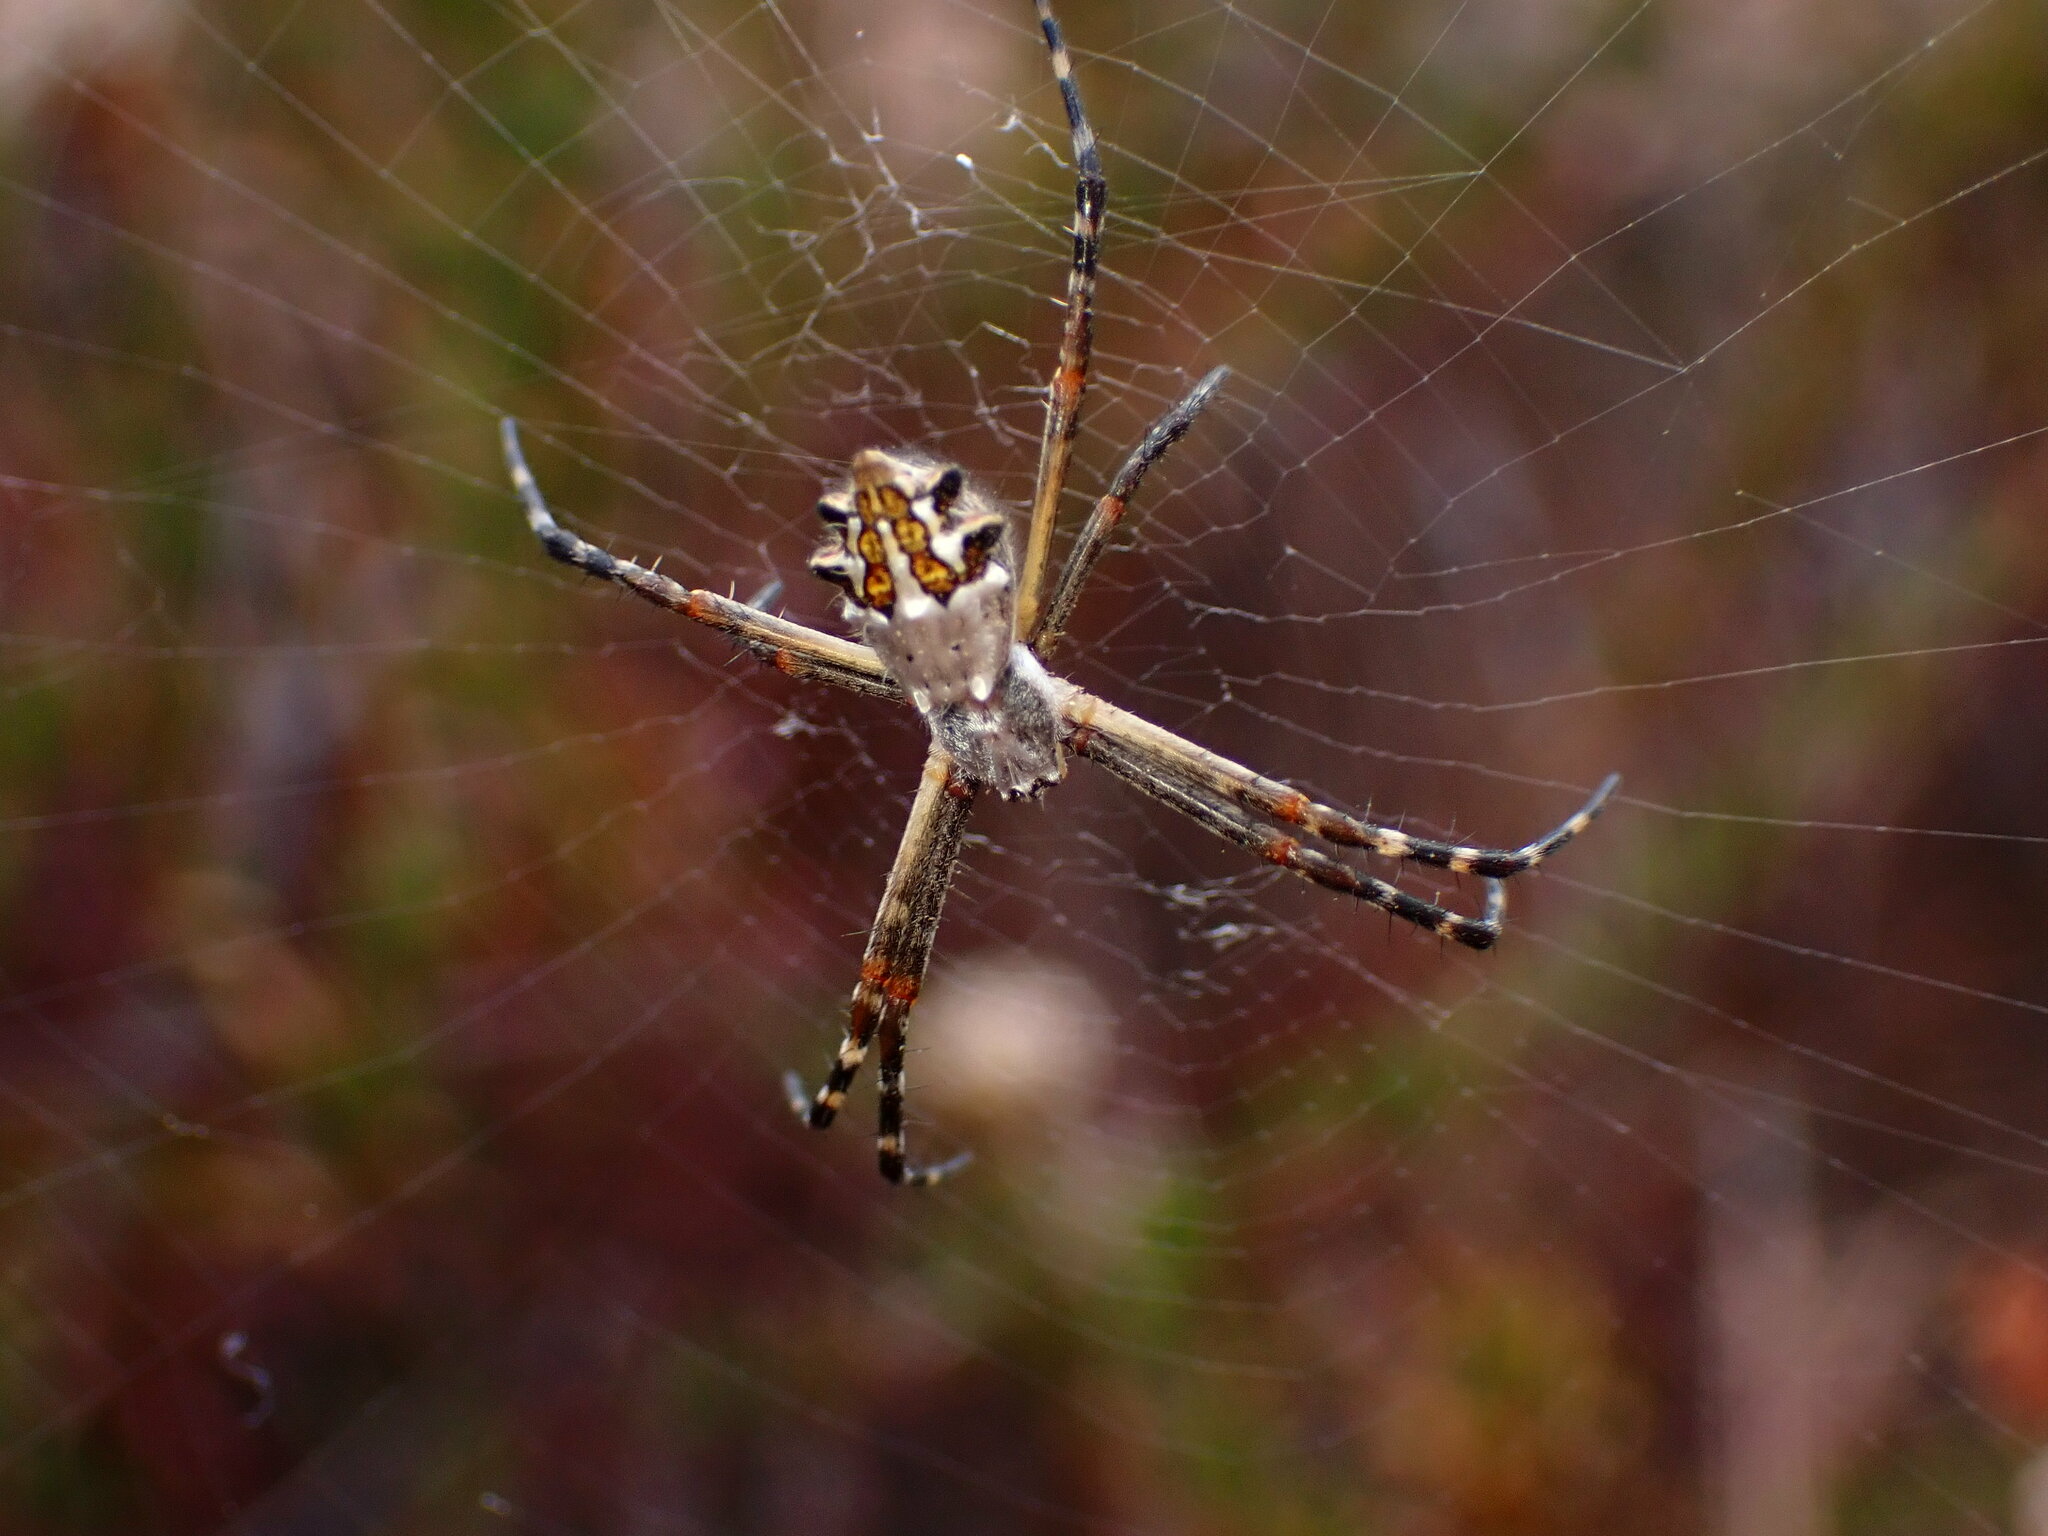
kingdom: Animalia
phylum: Arthropoda
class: Arachnida
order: Araneae
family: Araneidae
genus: Argiope
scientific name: Argiope argentata
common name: Orb weavers
